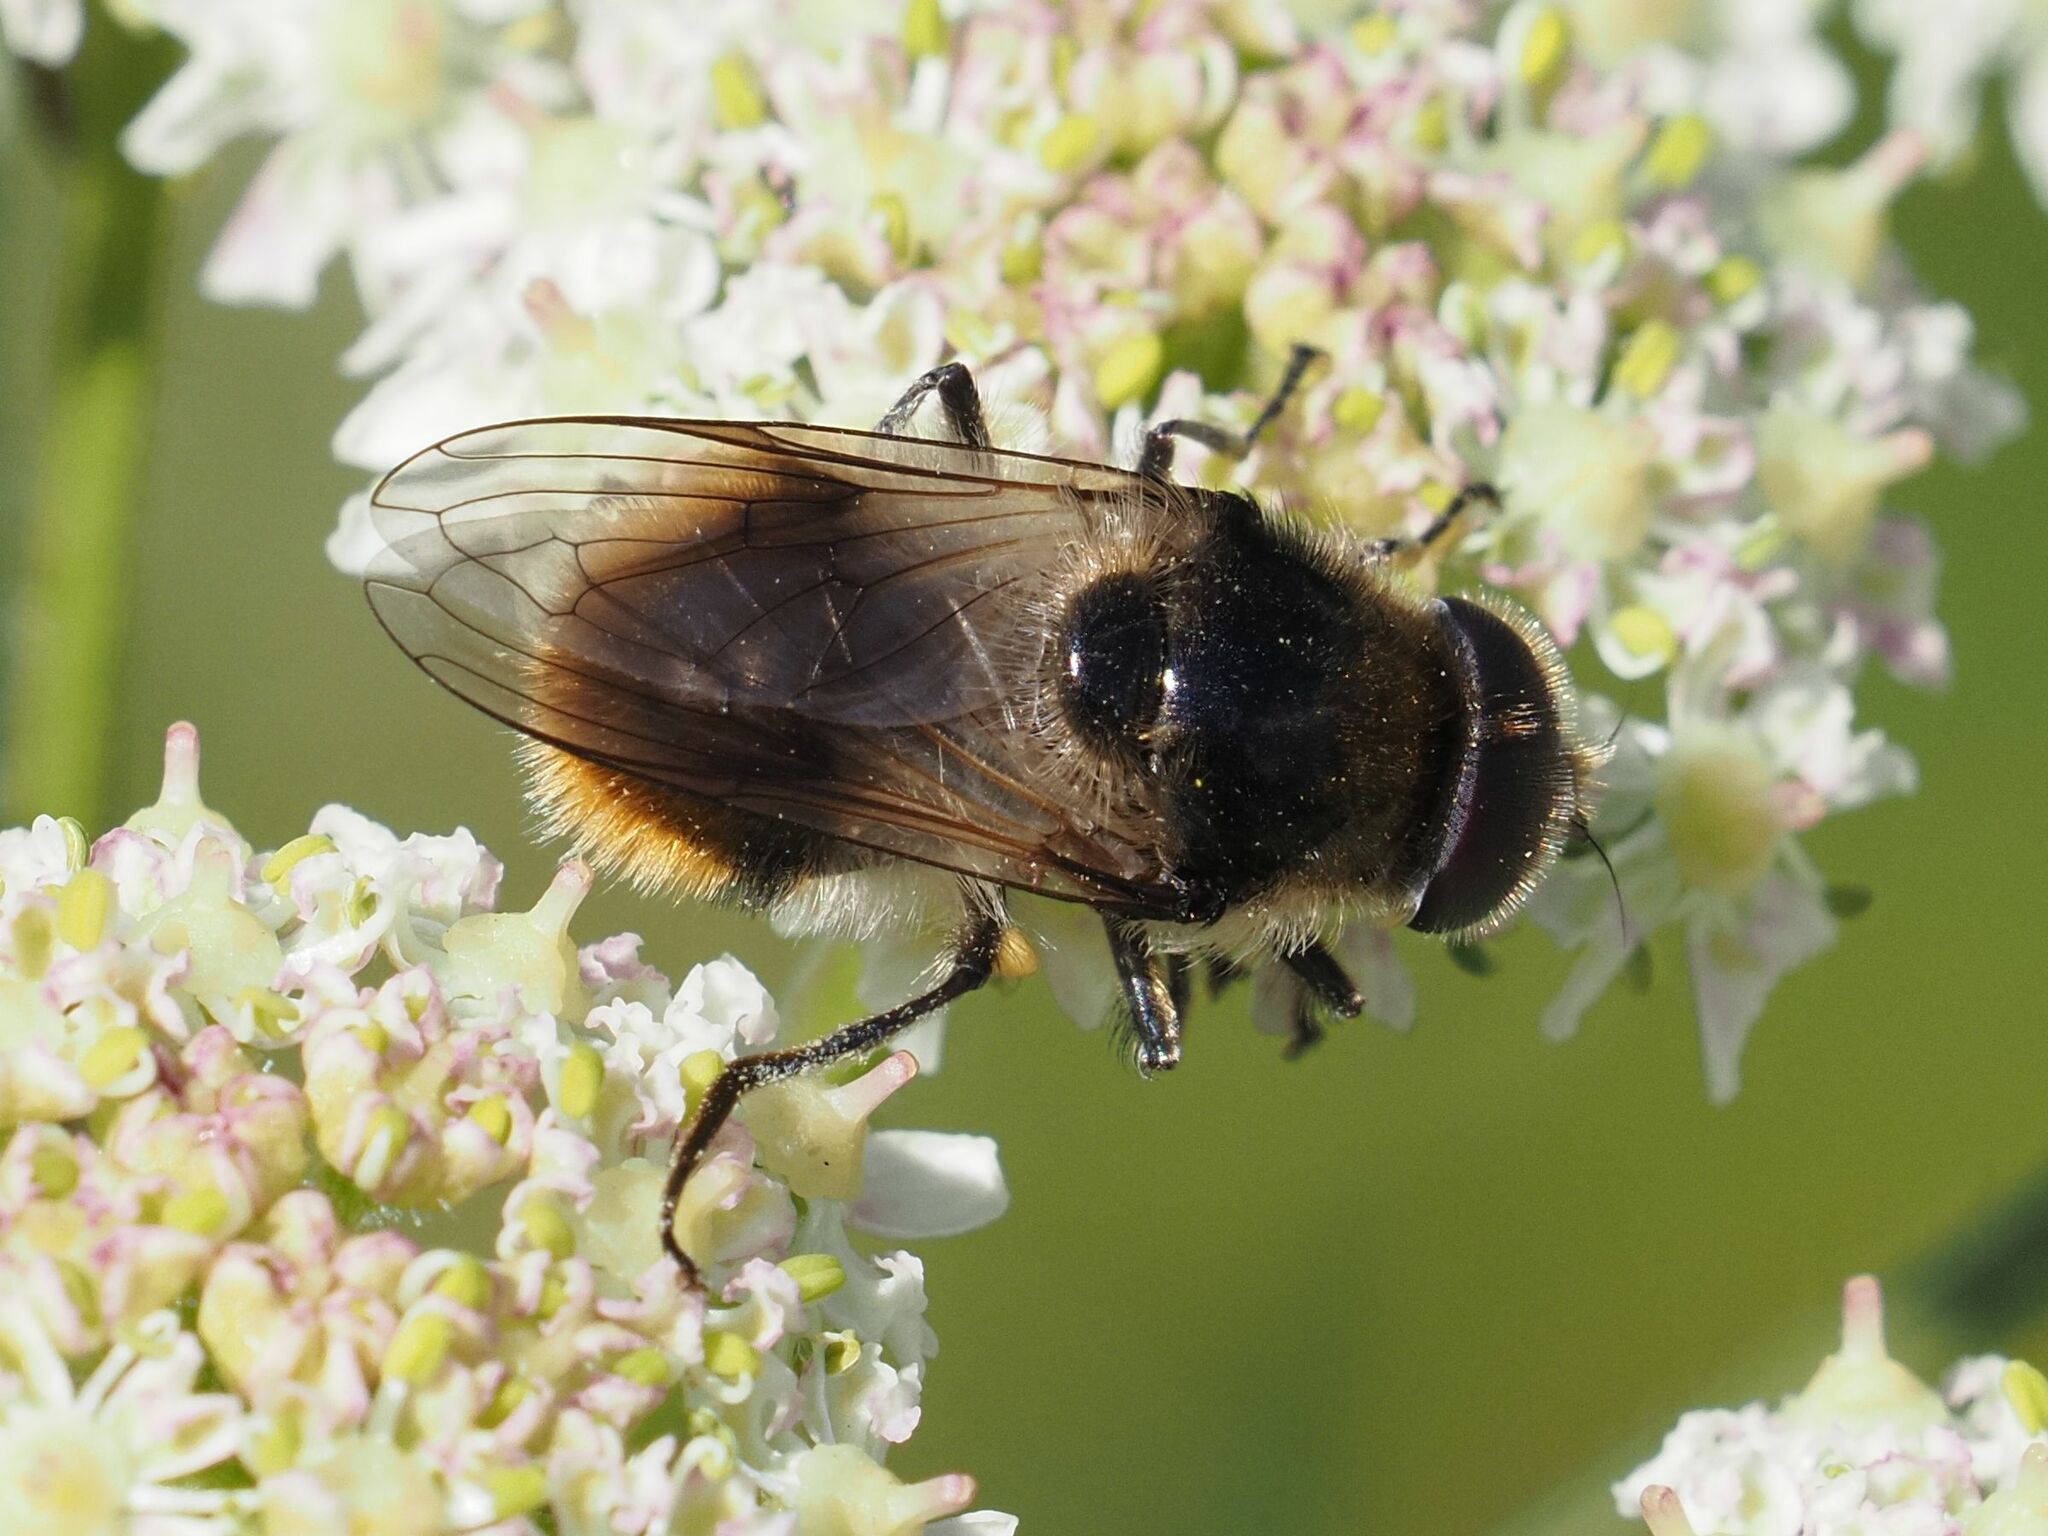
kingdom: Animalia
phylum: Arthropoda
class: Insecta
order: Diptera
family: Syrphidae
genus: Cheilosia
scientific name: Cheilosia illustrata
